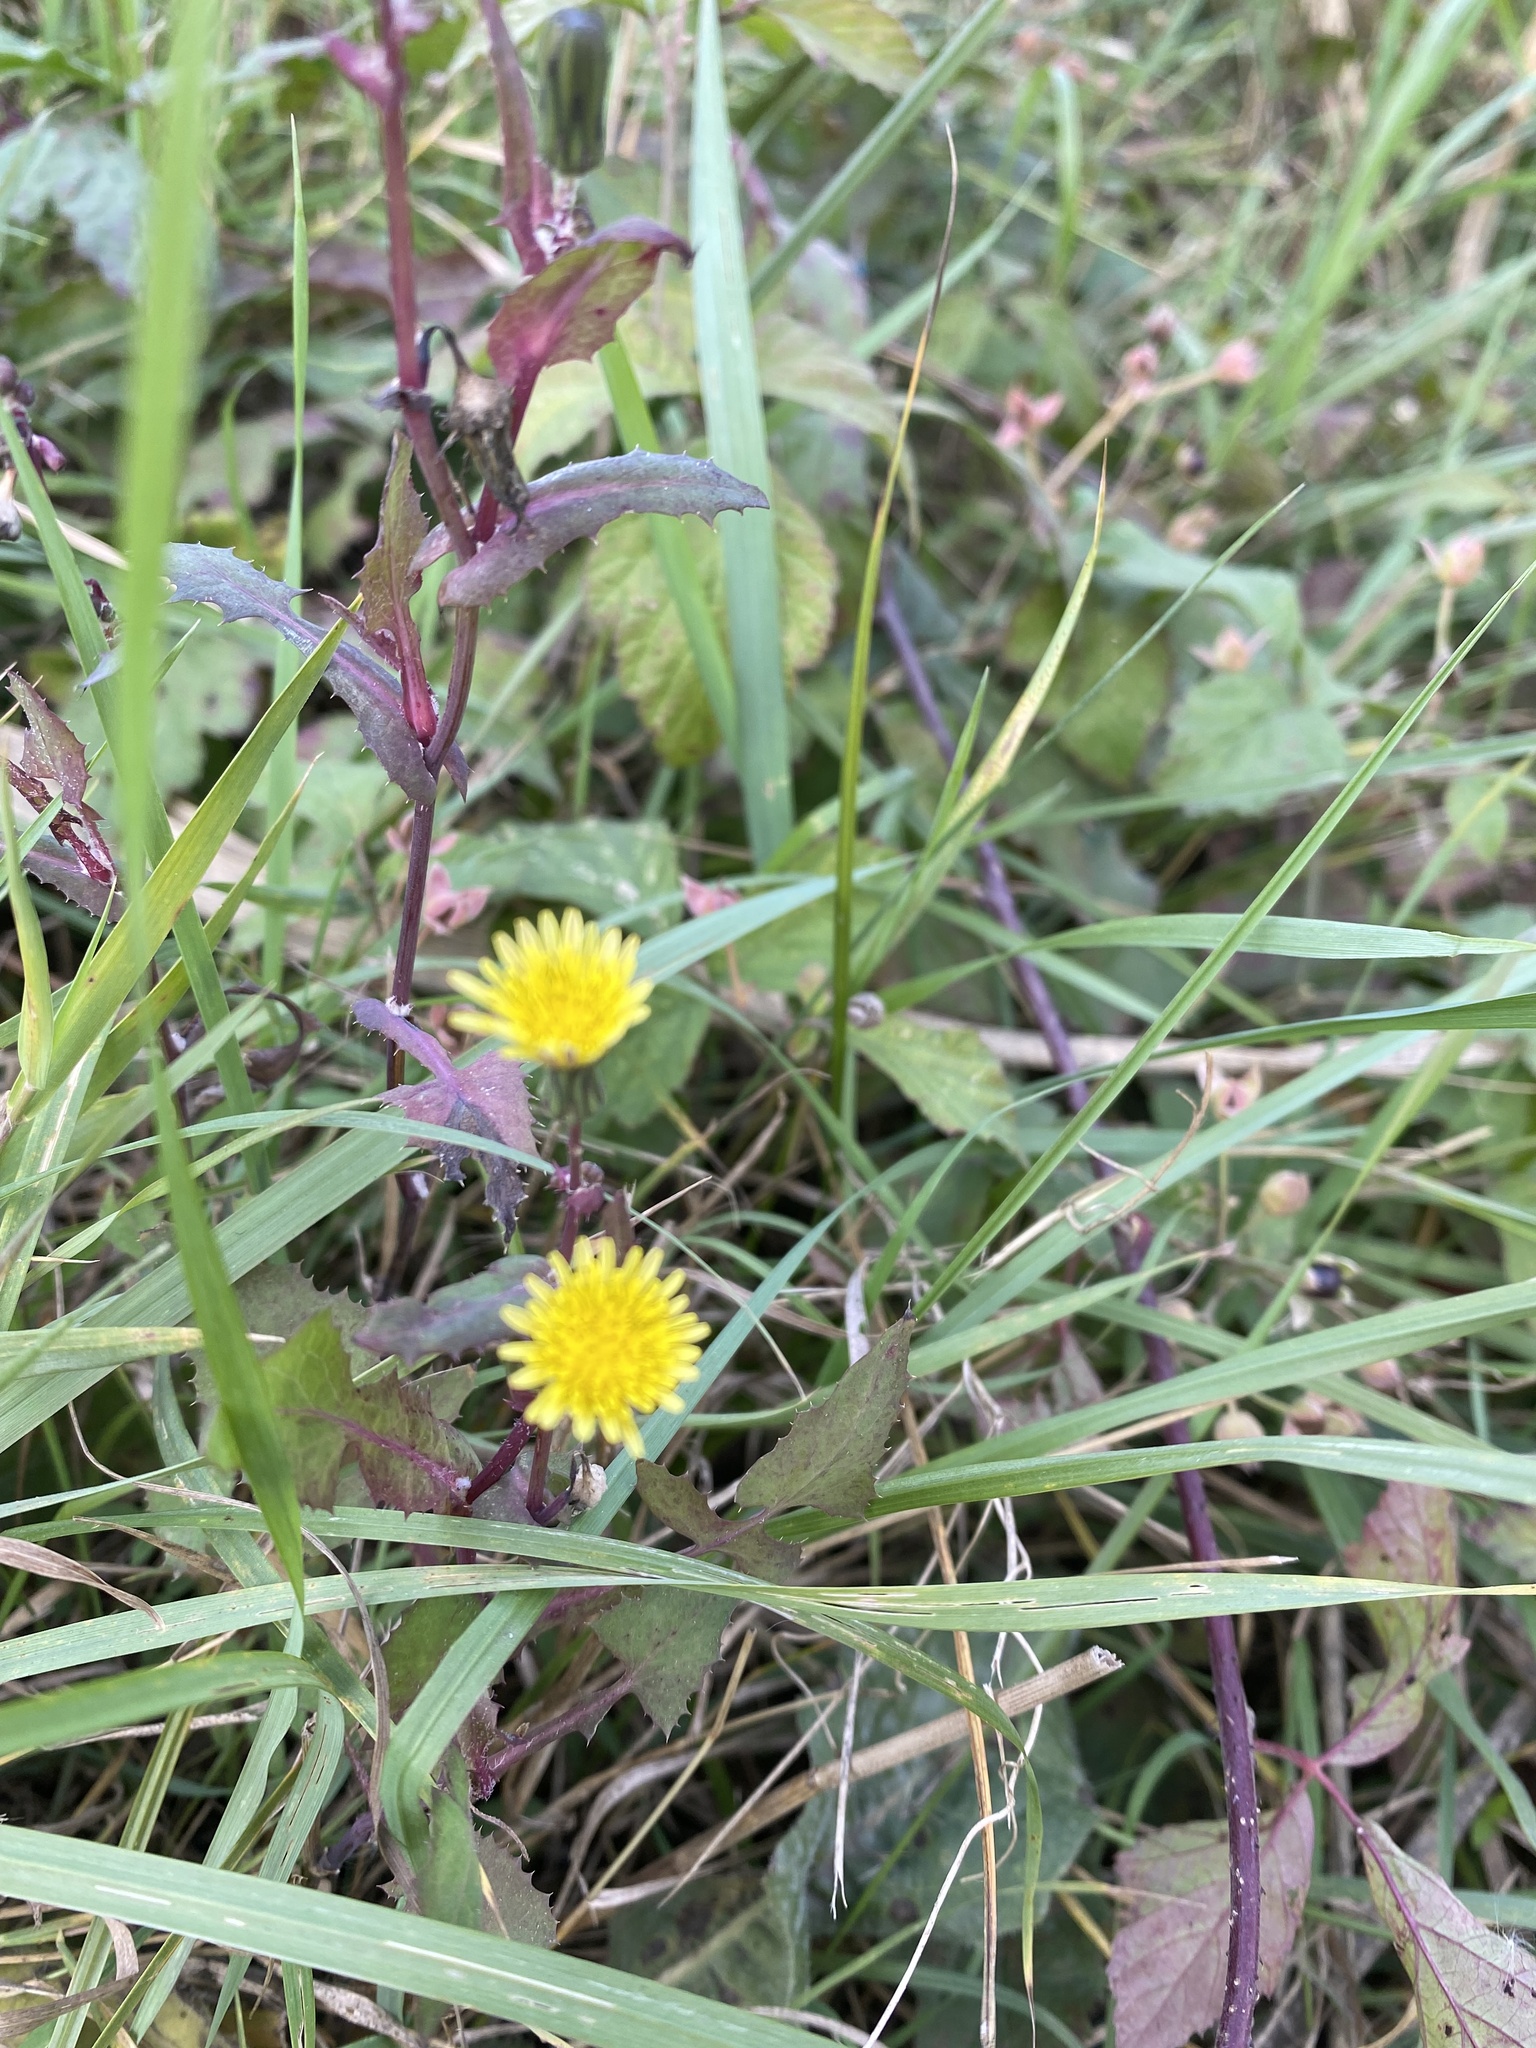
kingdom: Plantae
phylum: Tracheophyta
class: Magnoliopsida
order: Asterales
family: Asteraceae
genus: Sonchus
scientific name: Sonchus oleraceus
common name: Common sowthistle
